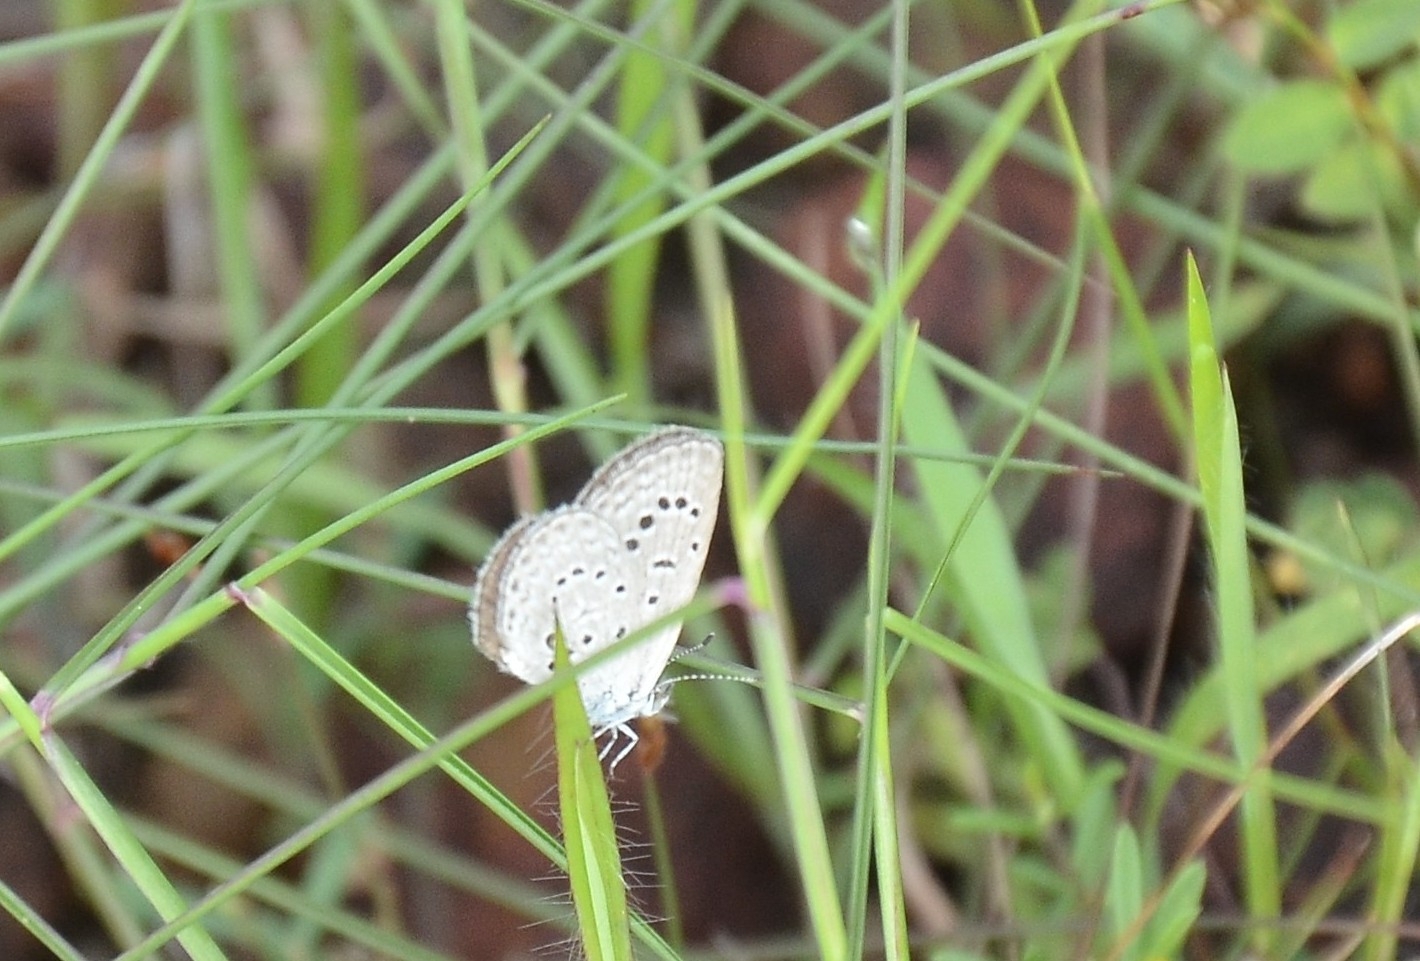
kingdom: Animalia
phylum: Arthropoda
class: Insecta
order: Lepidoptera
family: Lycaenidae
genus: Zizeeria
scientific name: Zizeeria karsandra
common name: Dark grass blue
